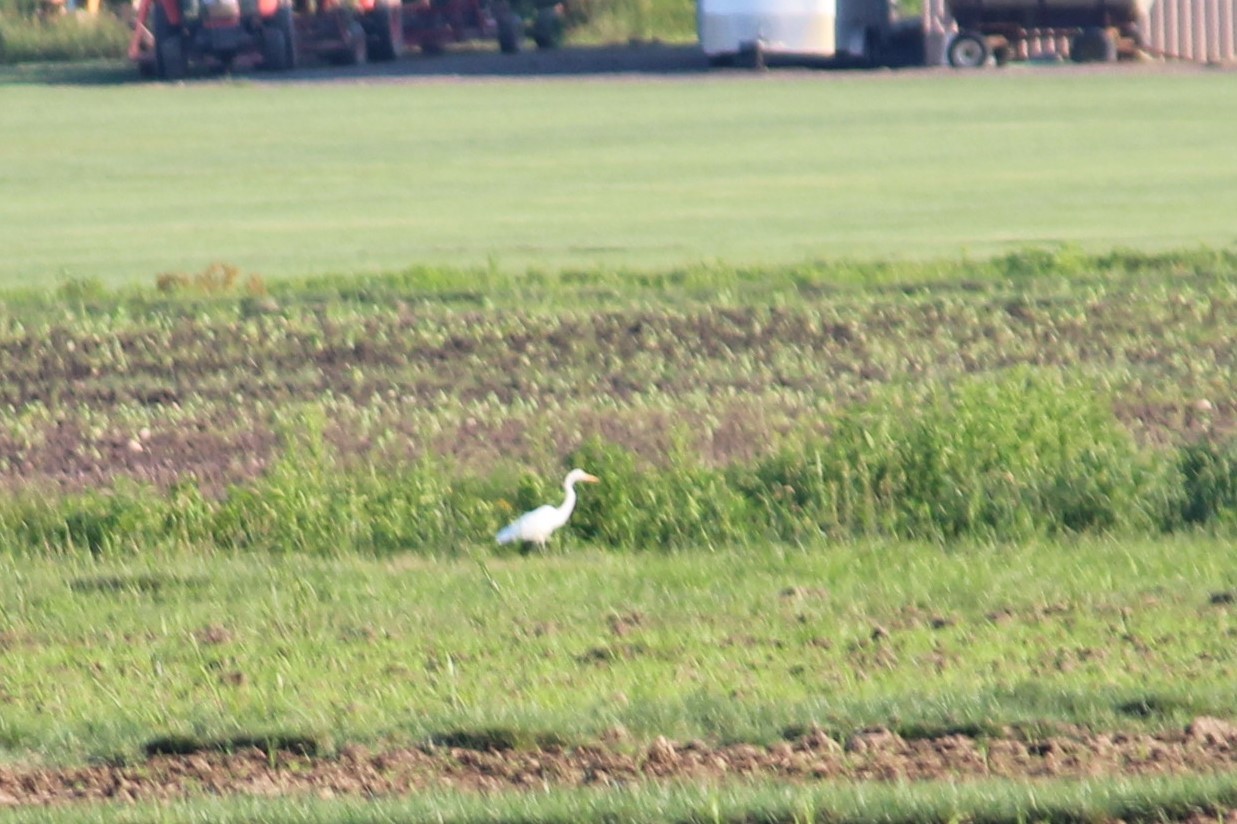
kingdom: Animalia
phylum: Chordata
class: Aves
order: Pelecaniformes
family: Ardeidae
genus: Ardea
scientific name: Ardea alba
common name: Great egret
